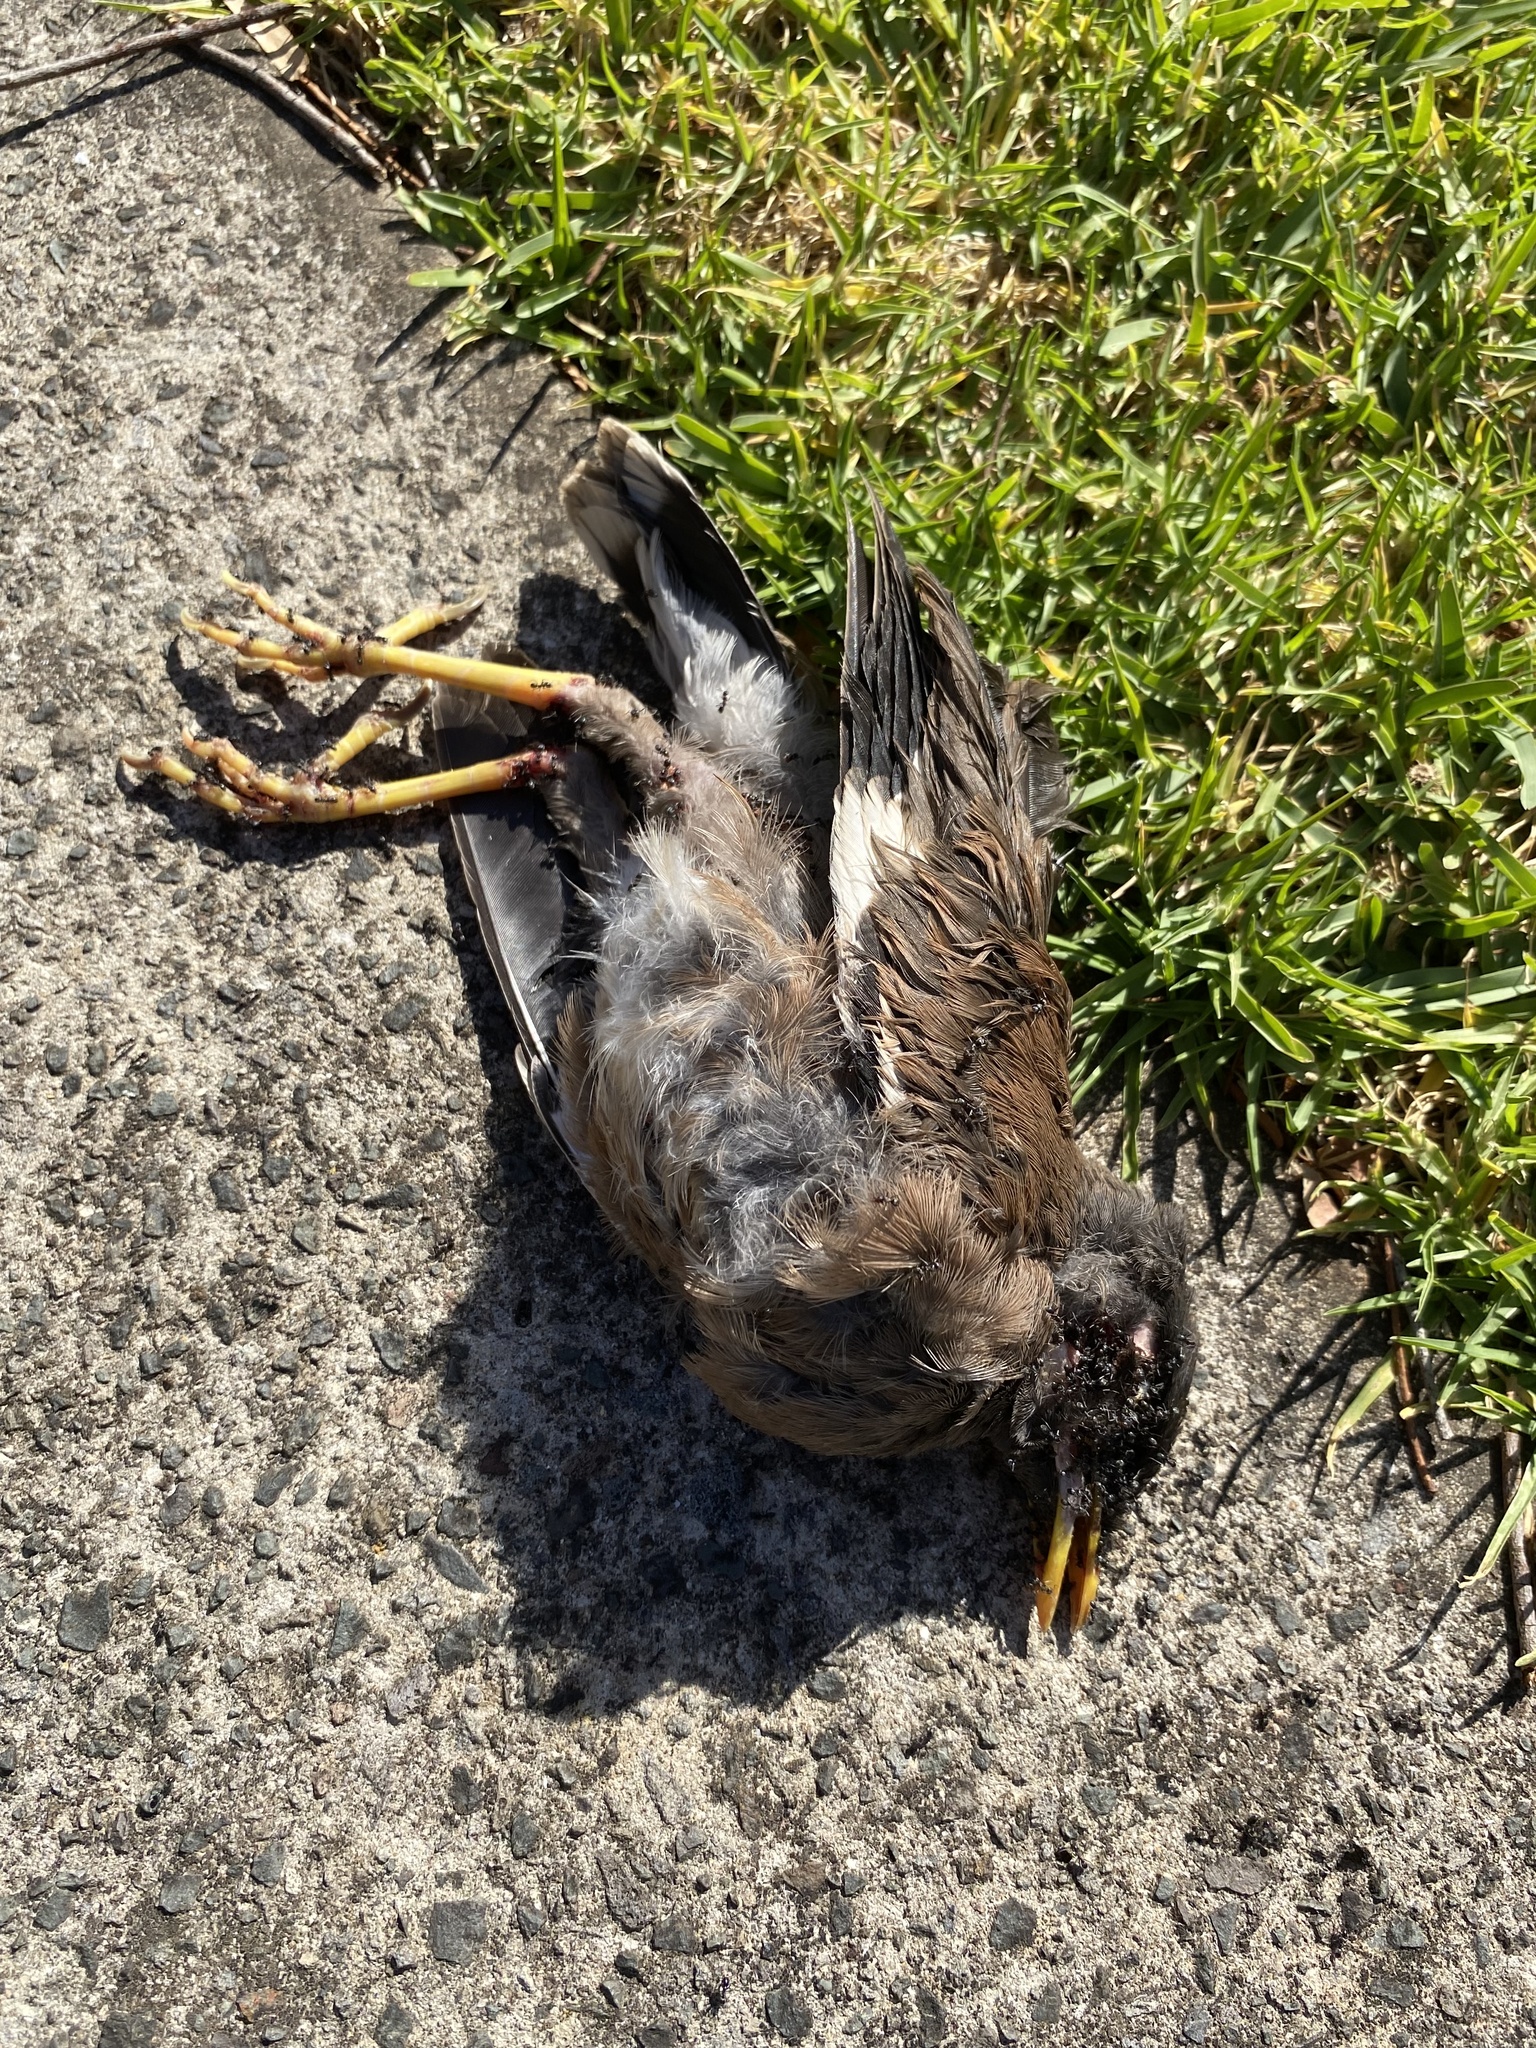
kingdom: Animalia
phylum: Chordata
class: Aves
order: Passeriformes
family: Sturnidae
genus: Acridotheres
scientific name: Acridotheres tristis
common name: Common myna
